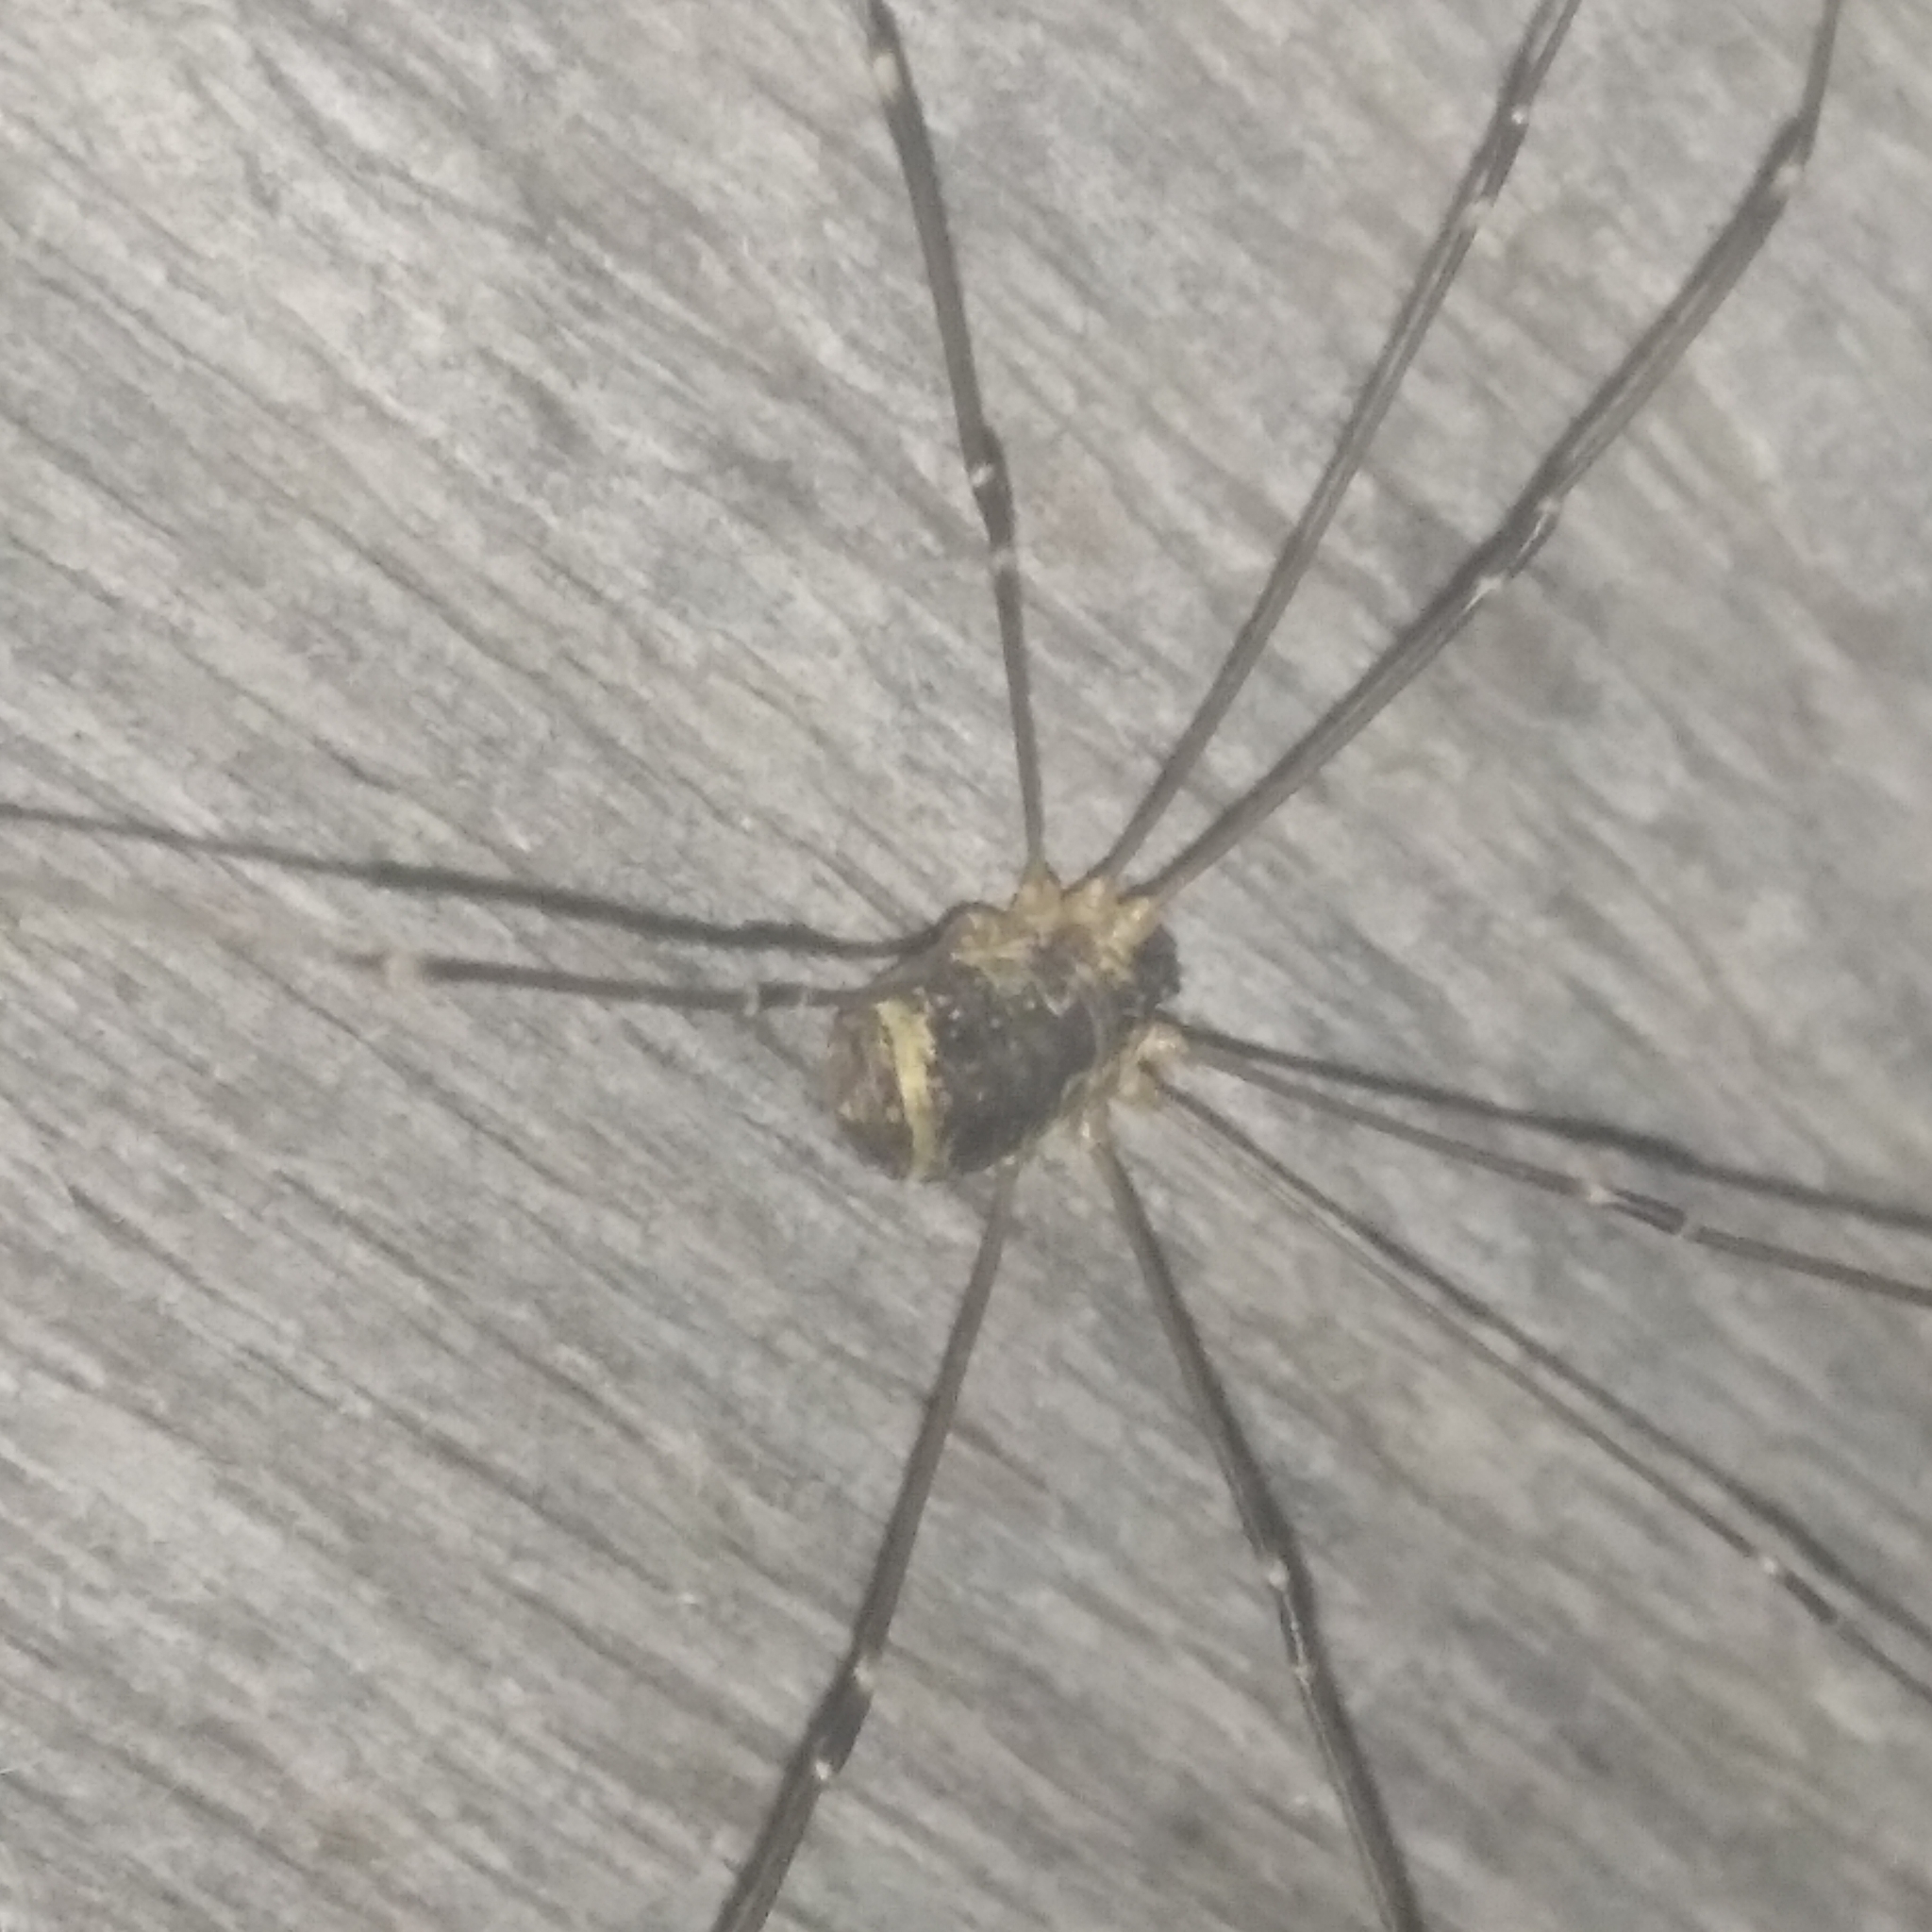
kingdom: Animalia
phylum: Arthropoda
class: Arachnida
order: Opiliones
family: Sclerosomatidae
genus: Leiobunum
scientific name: Leiobunum gracile
